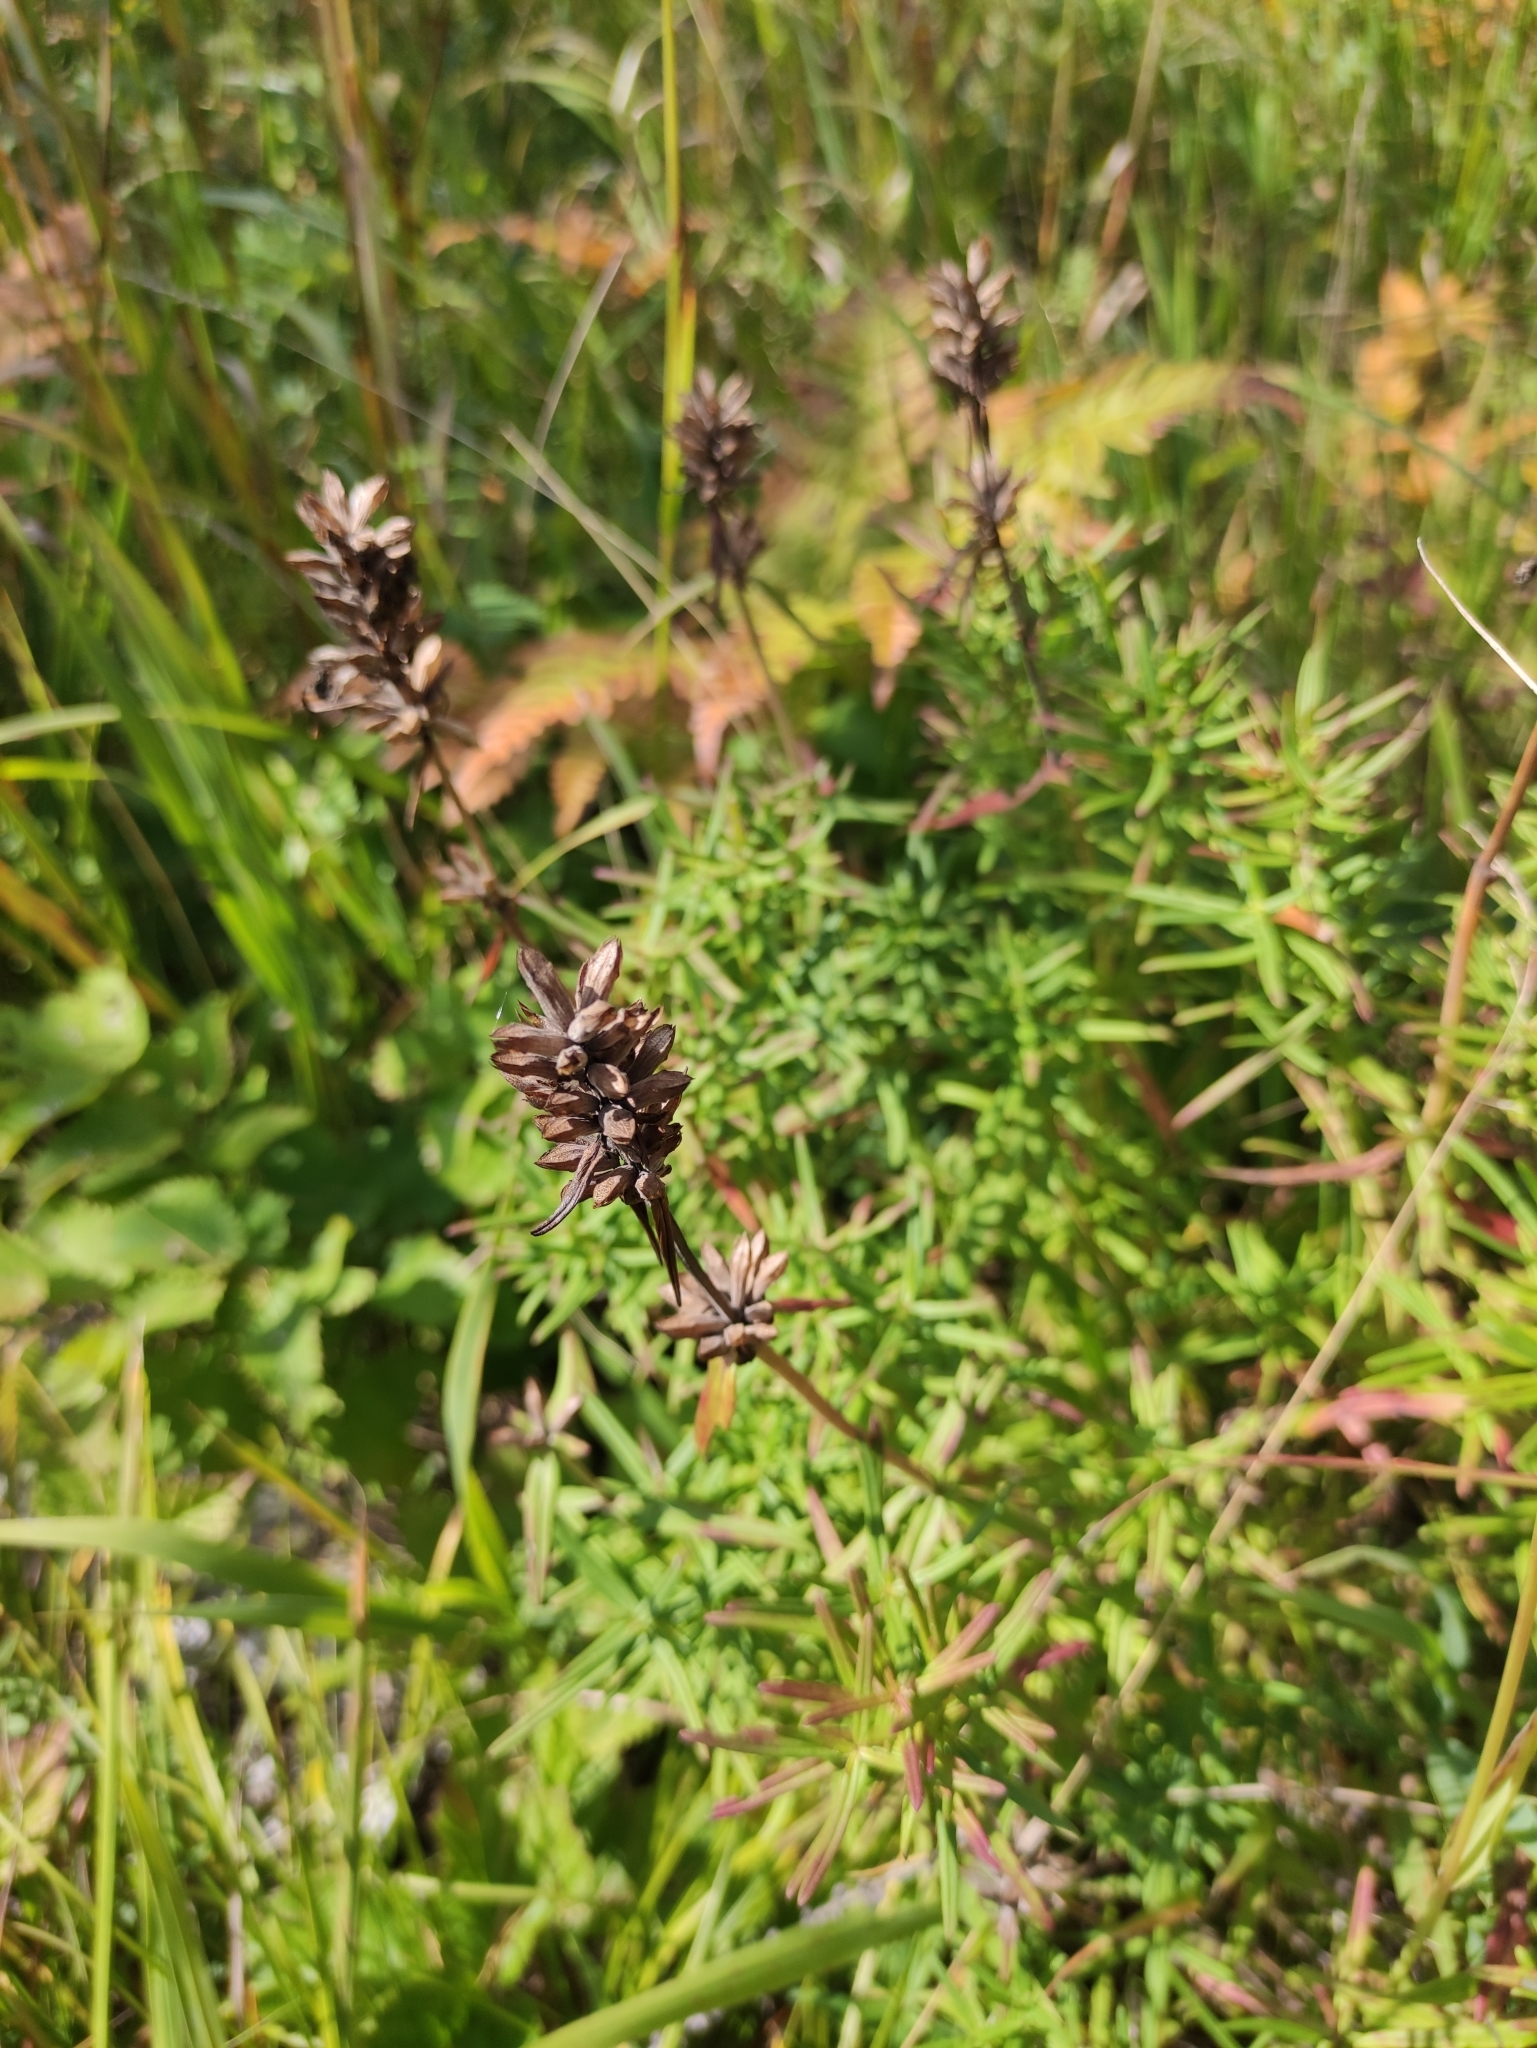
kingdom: Plantae
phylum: Tracheophyta
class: Magnoliopsida
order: Lamiales
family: Lamiaceae
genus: Dracocephalum
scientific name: Dracocephalum ruyschiana
